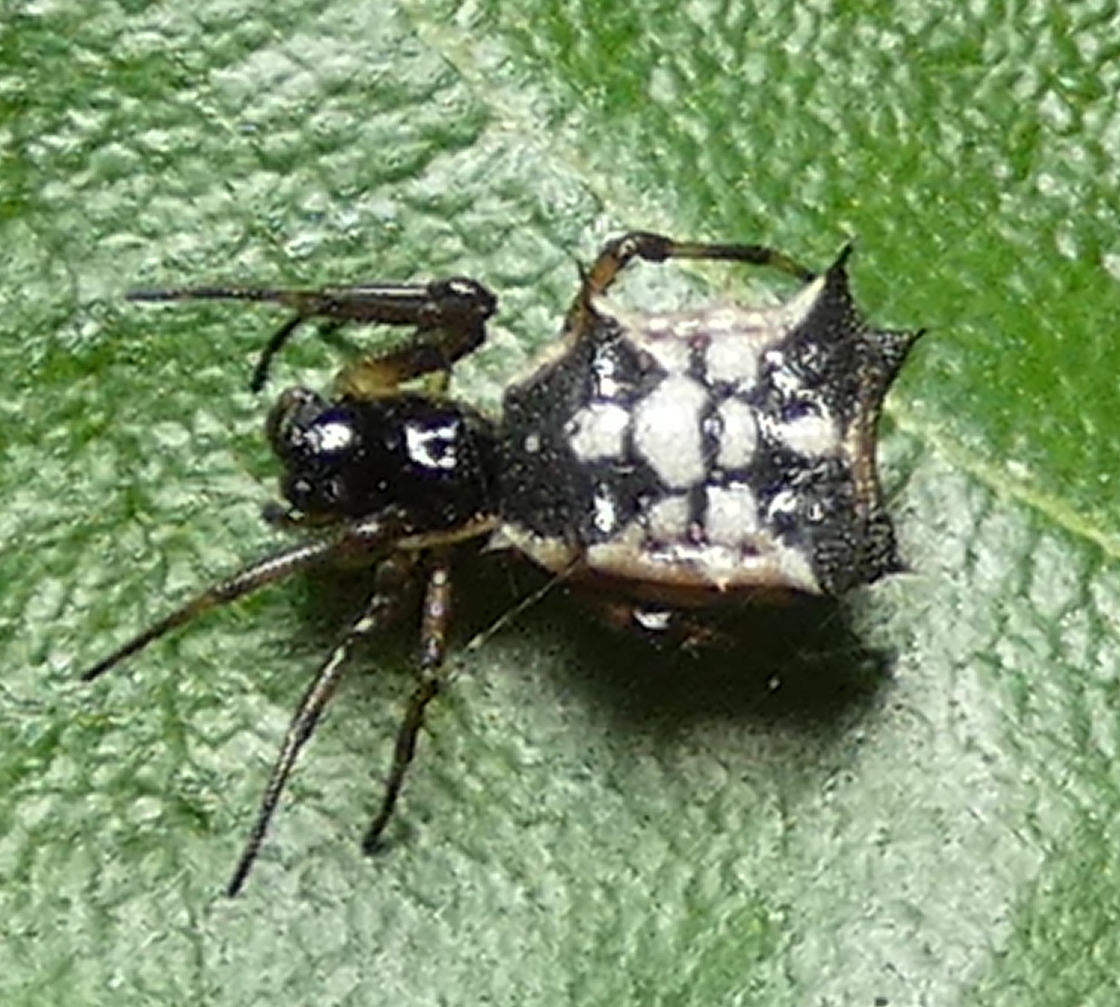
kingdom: Animalia
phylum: Arthropoda
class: Arachnida
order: Araneae
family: Araneidae
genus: Micrathena
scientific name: Micrathena picta
